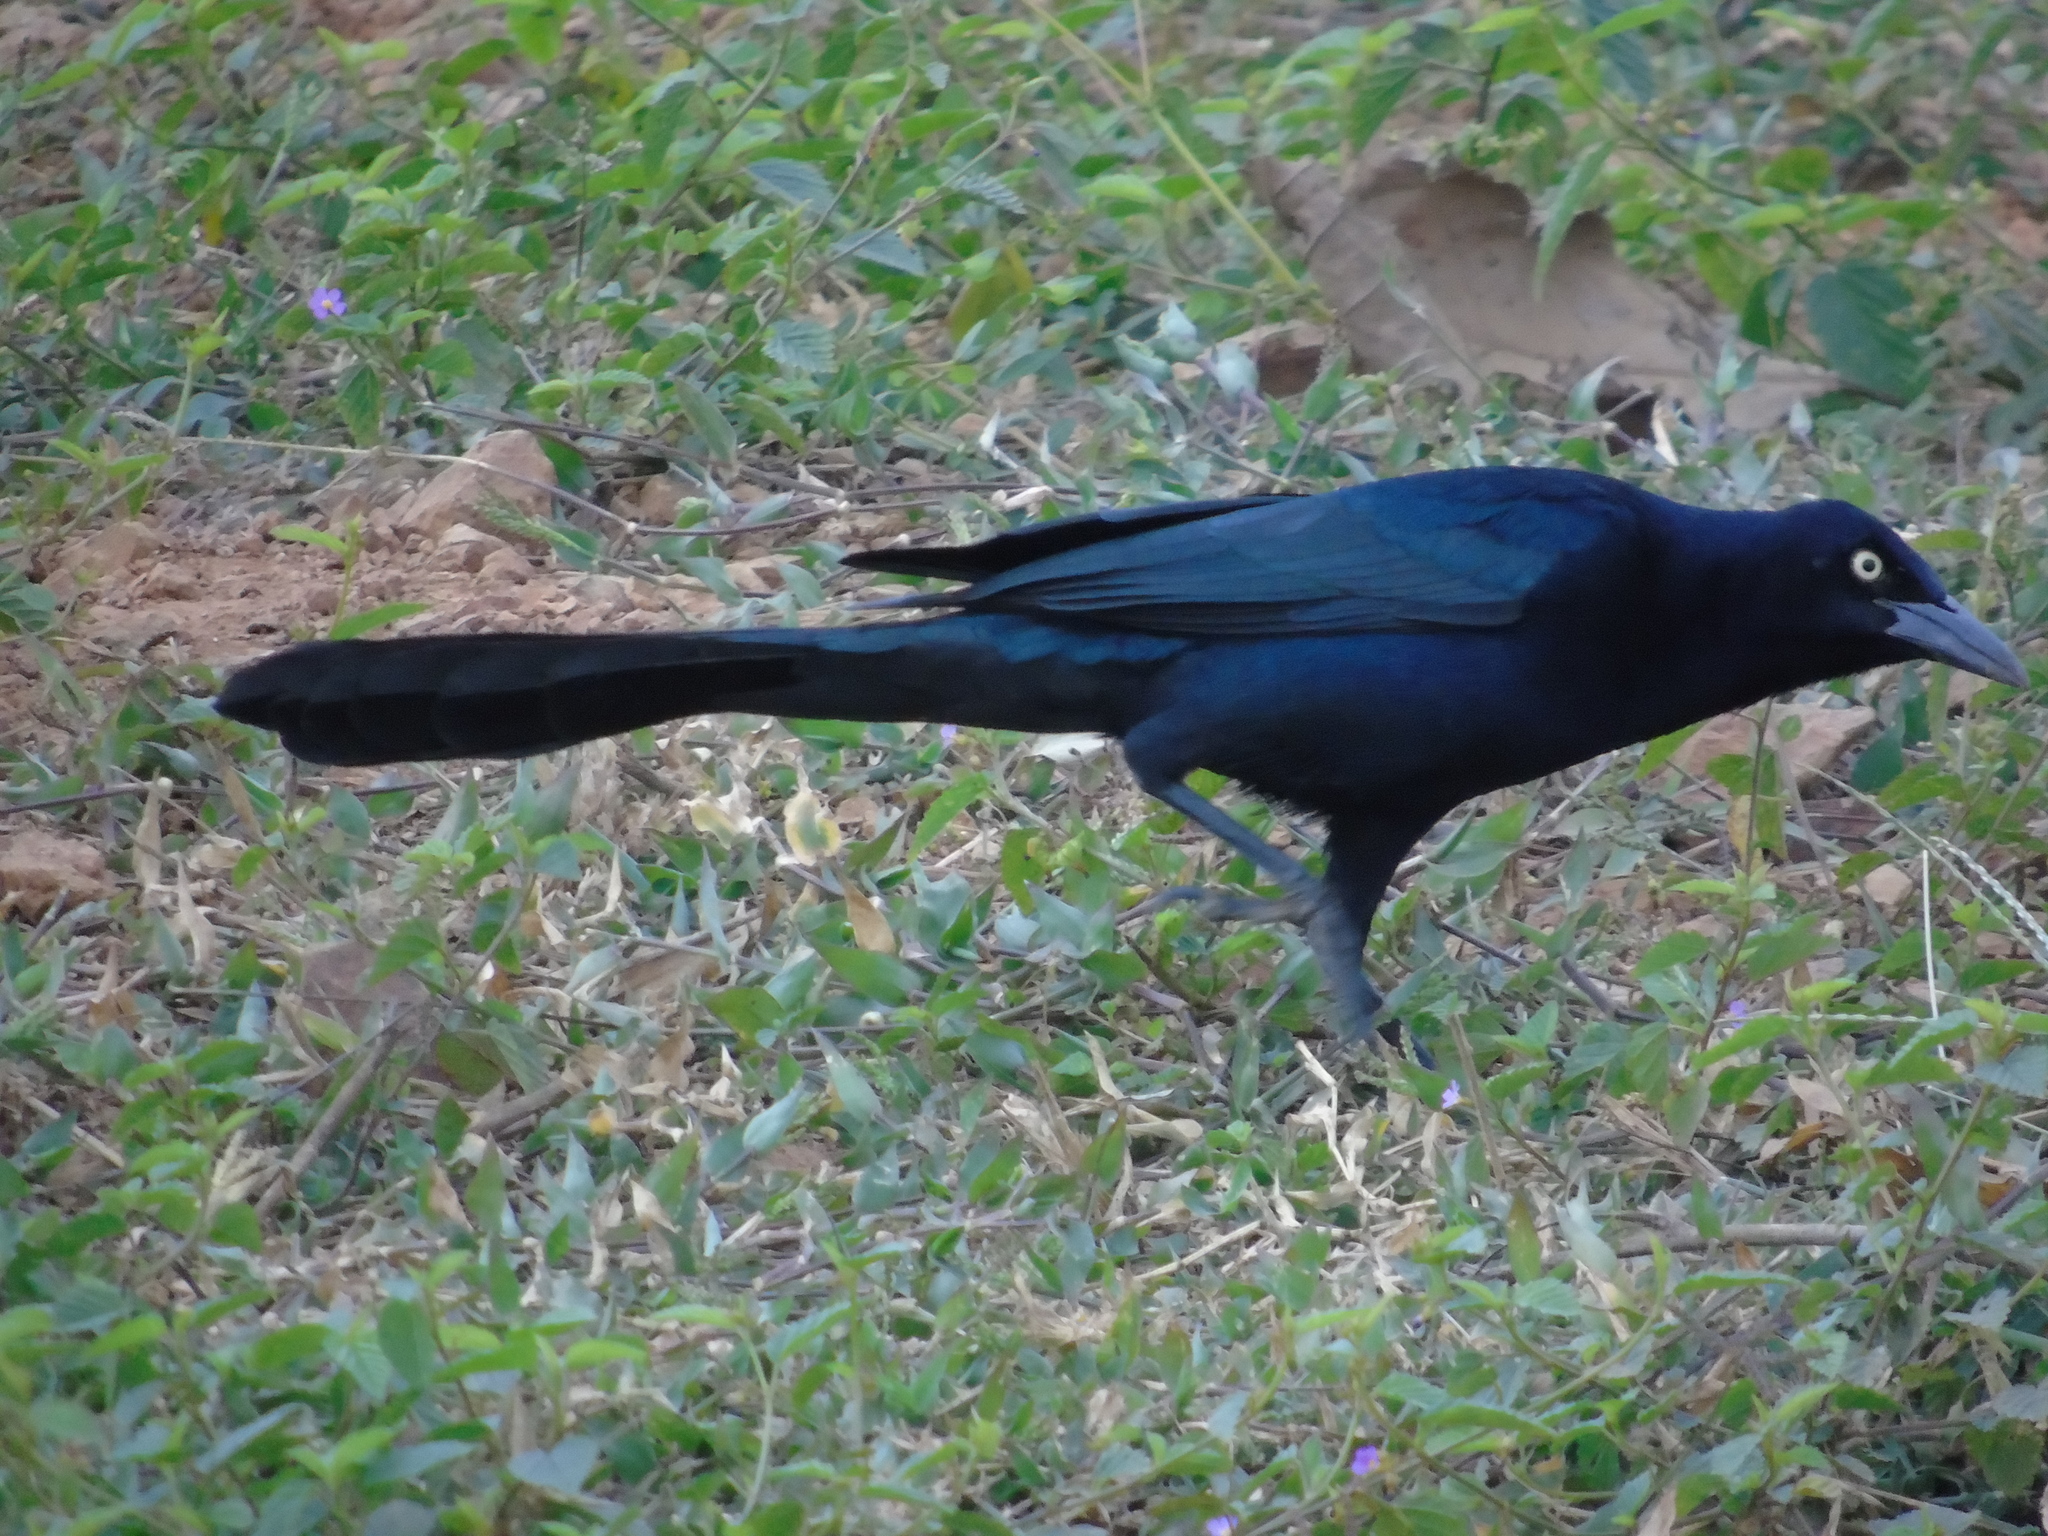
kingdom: Animalia
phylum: Chordata
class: Aves
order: Passeriformes
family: Icteridae
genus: Quiscalus
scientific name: Quiscalus mexicanus
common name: Great-tailed grackle
